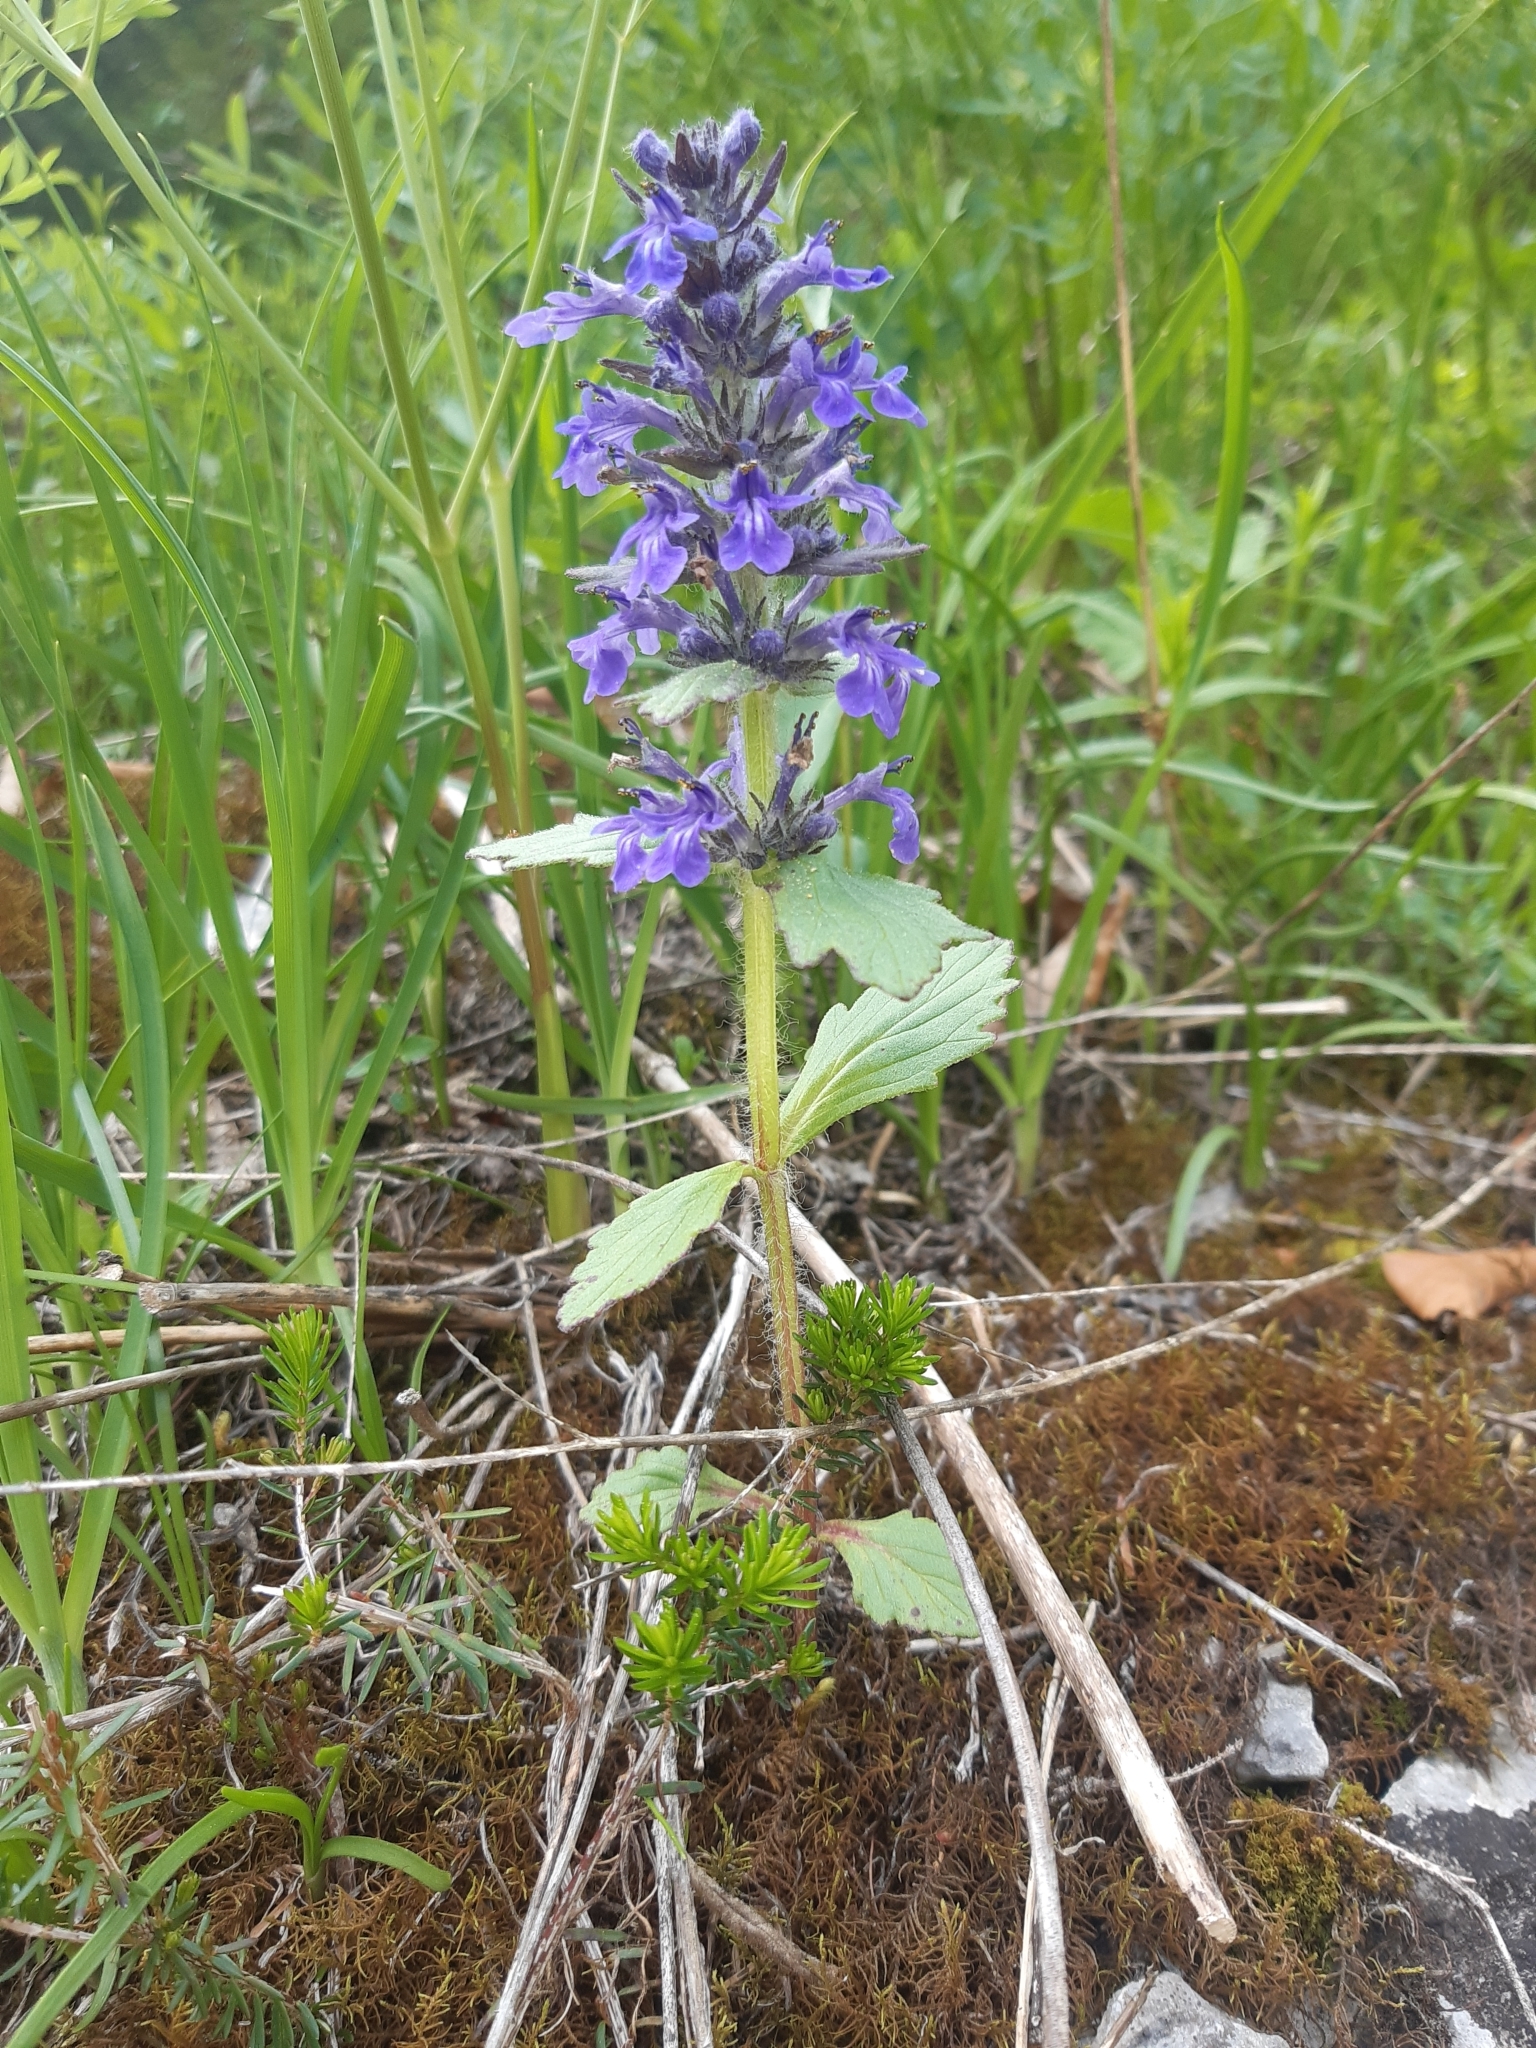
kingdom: Plantae
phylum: Tracheophyta
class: Magnoliopsida
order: Lamiales
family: Lamiaceae
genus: Ajuga
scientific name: Ajuga genevensis
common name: Blue bugle
